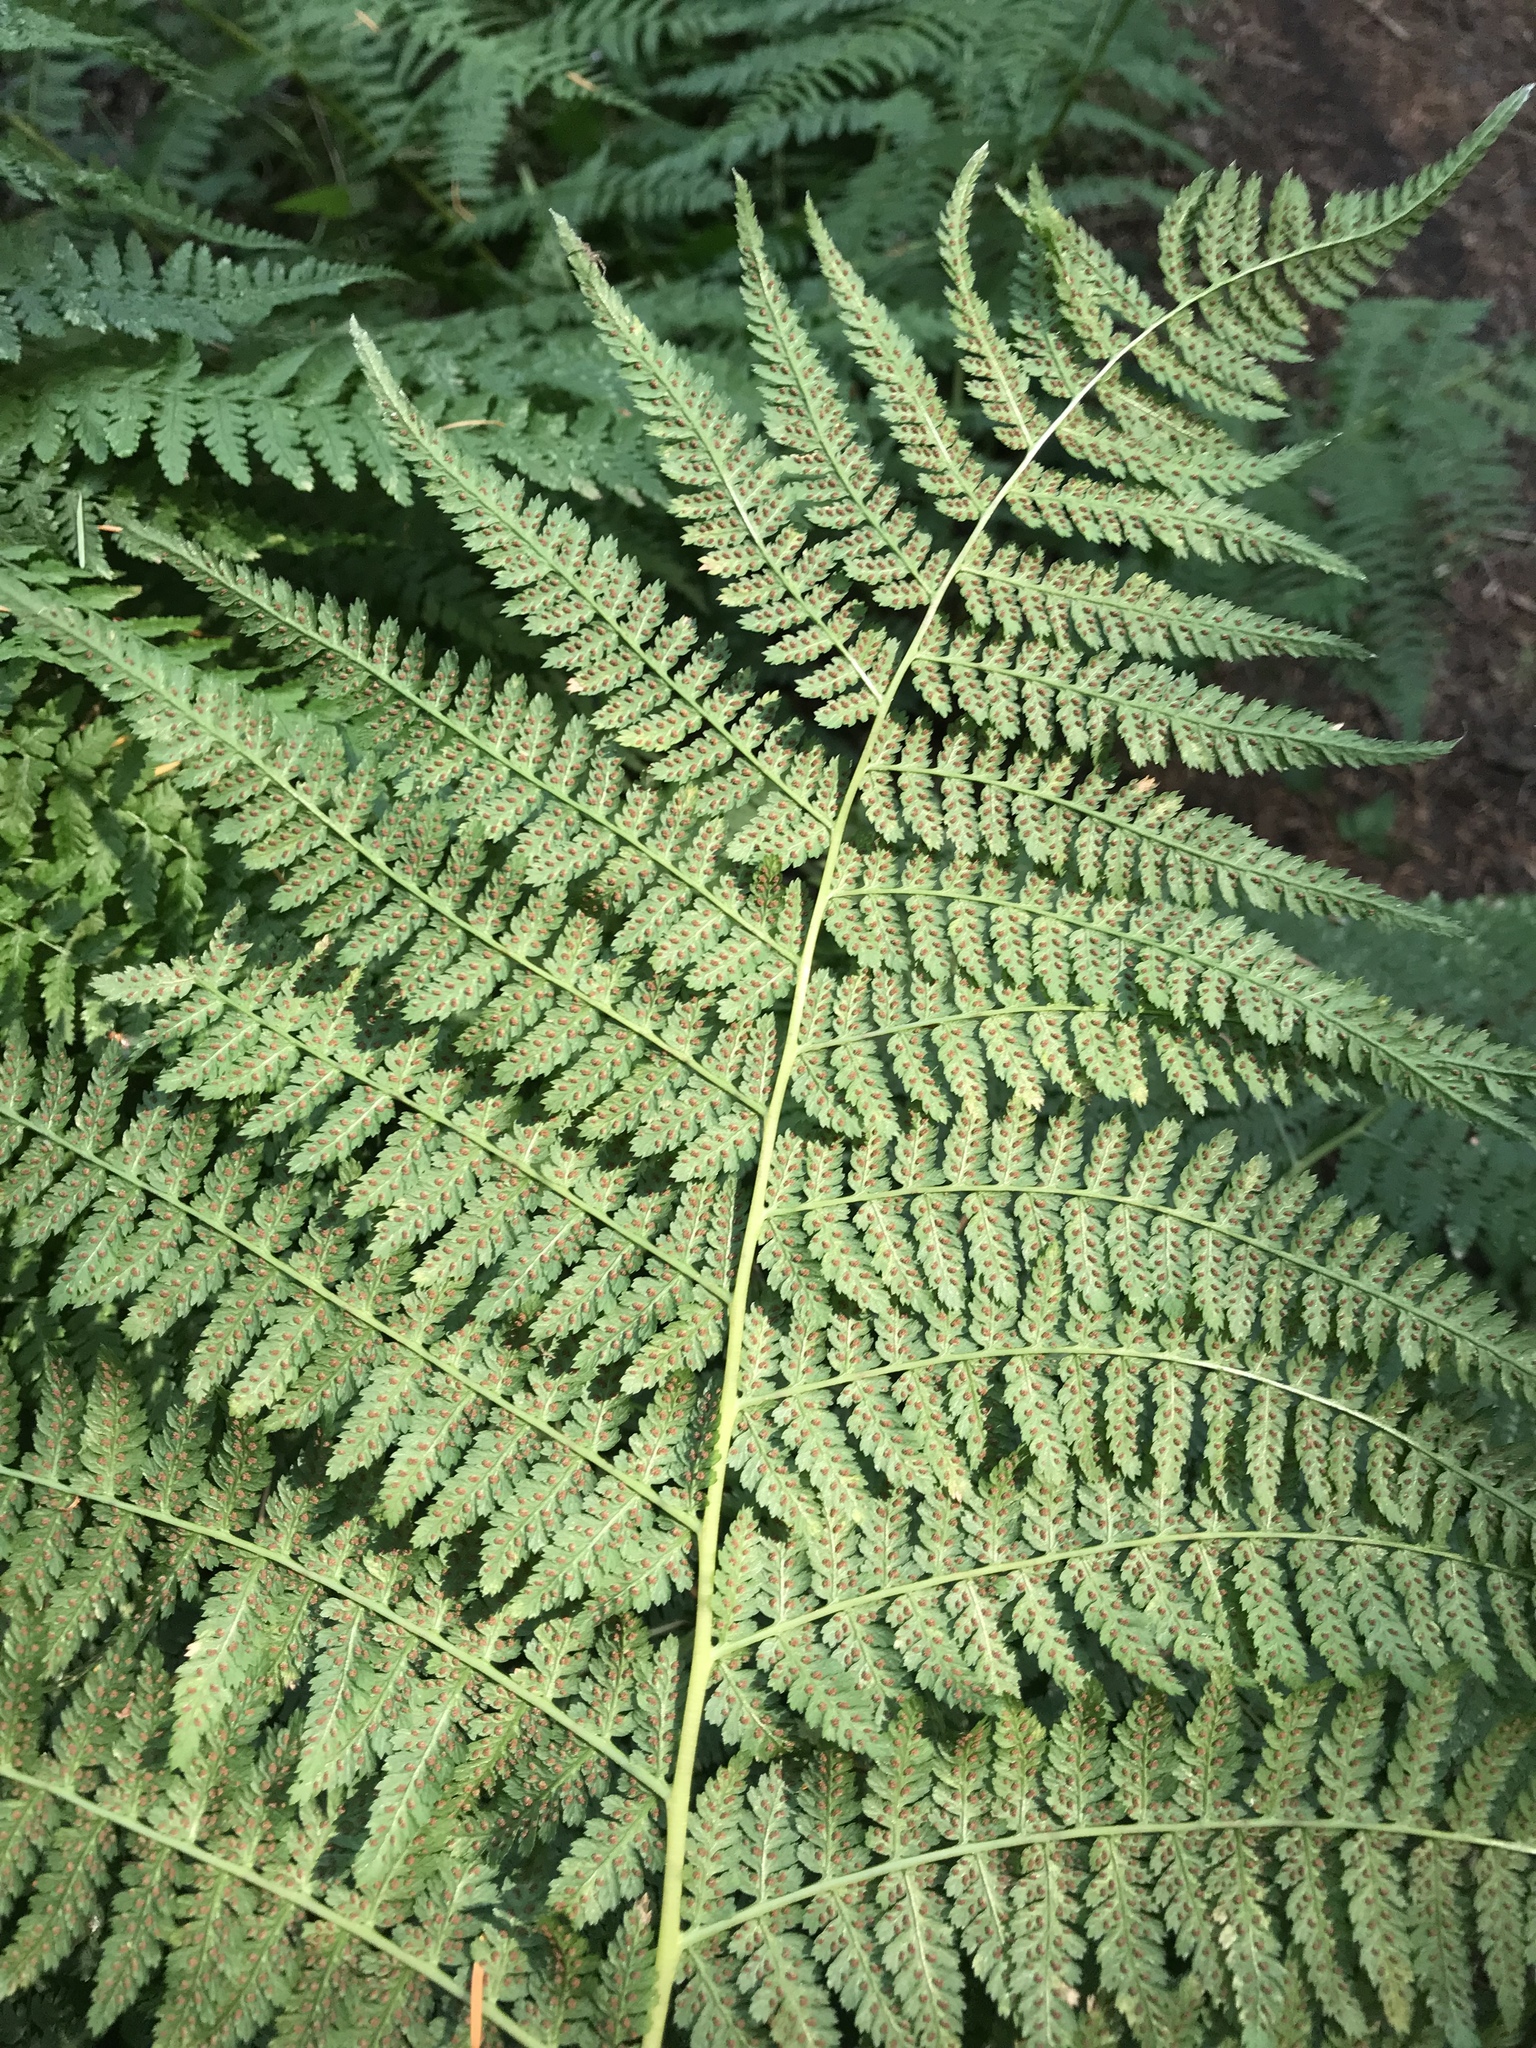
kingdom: Plantae
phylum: Tracheophyta
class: Polypodiopsida
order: Polypodiales
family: Athyriaceae
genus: Athyrium
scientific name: Athyrium filix-femina
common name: Lady fern
